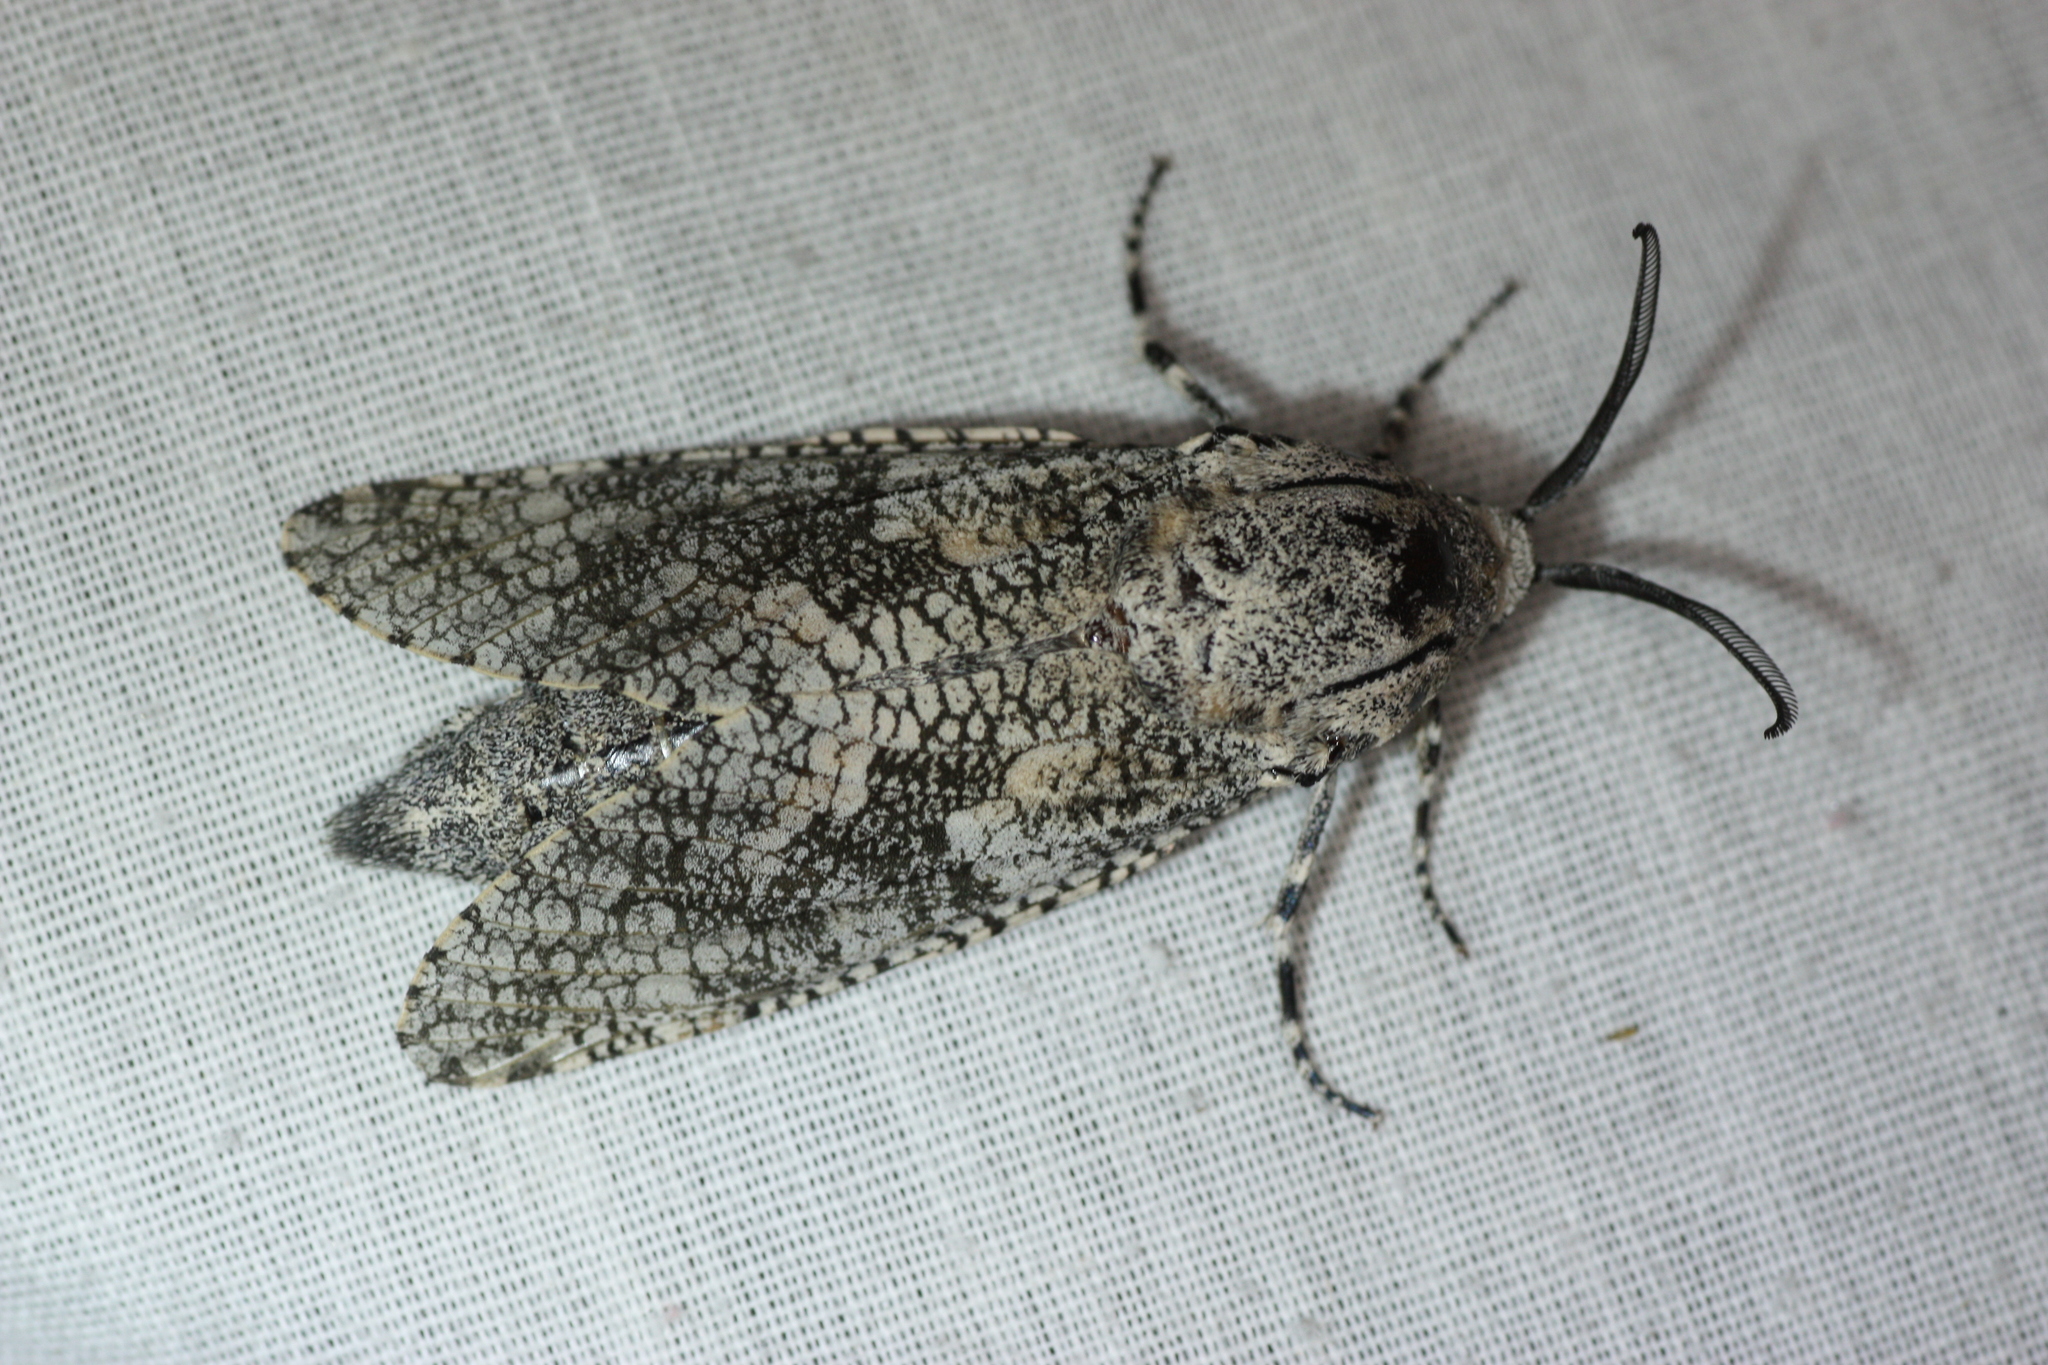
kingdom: Animalia
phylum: Arthropoda
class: Insecta
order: Lepidoptera
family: Cossidae
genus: Prionoxystus
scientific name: Prionoxystus robiniae
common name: Carpenterworm
